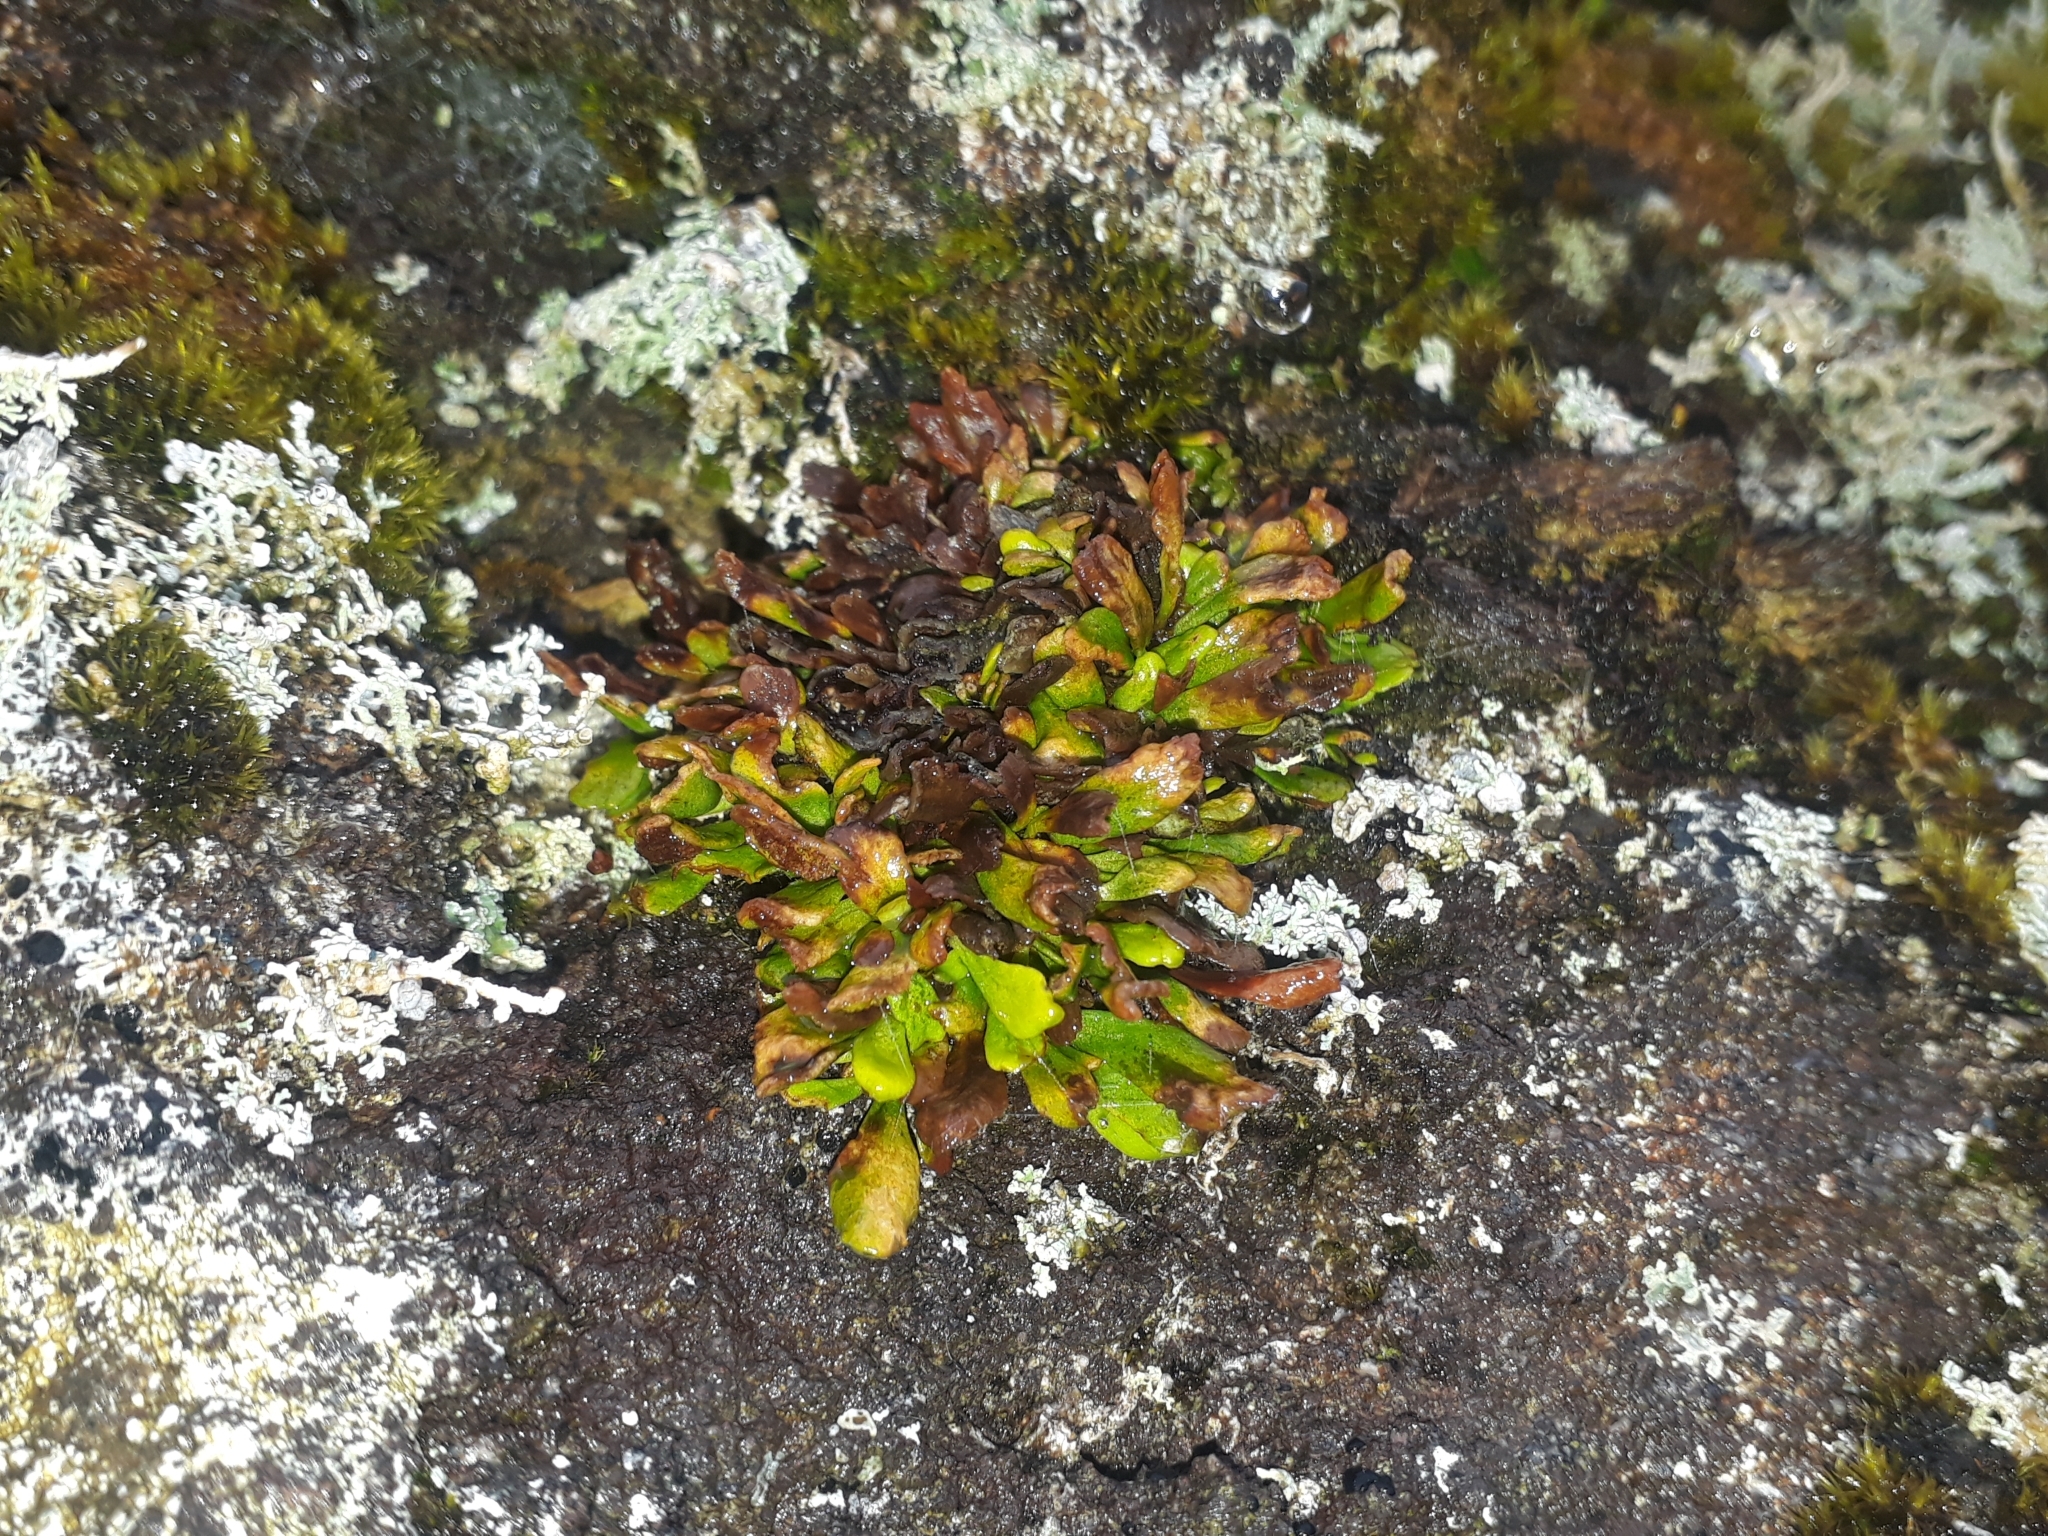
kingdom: Plantae
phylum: Tracheophyta
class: Polypodiopsida
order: Polypodiales
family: Polypodiaceae
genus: Notogrammitis
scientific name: Notogrammitis crassior
